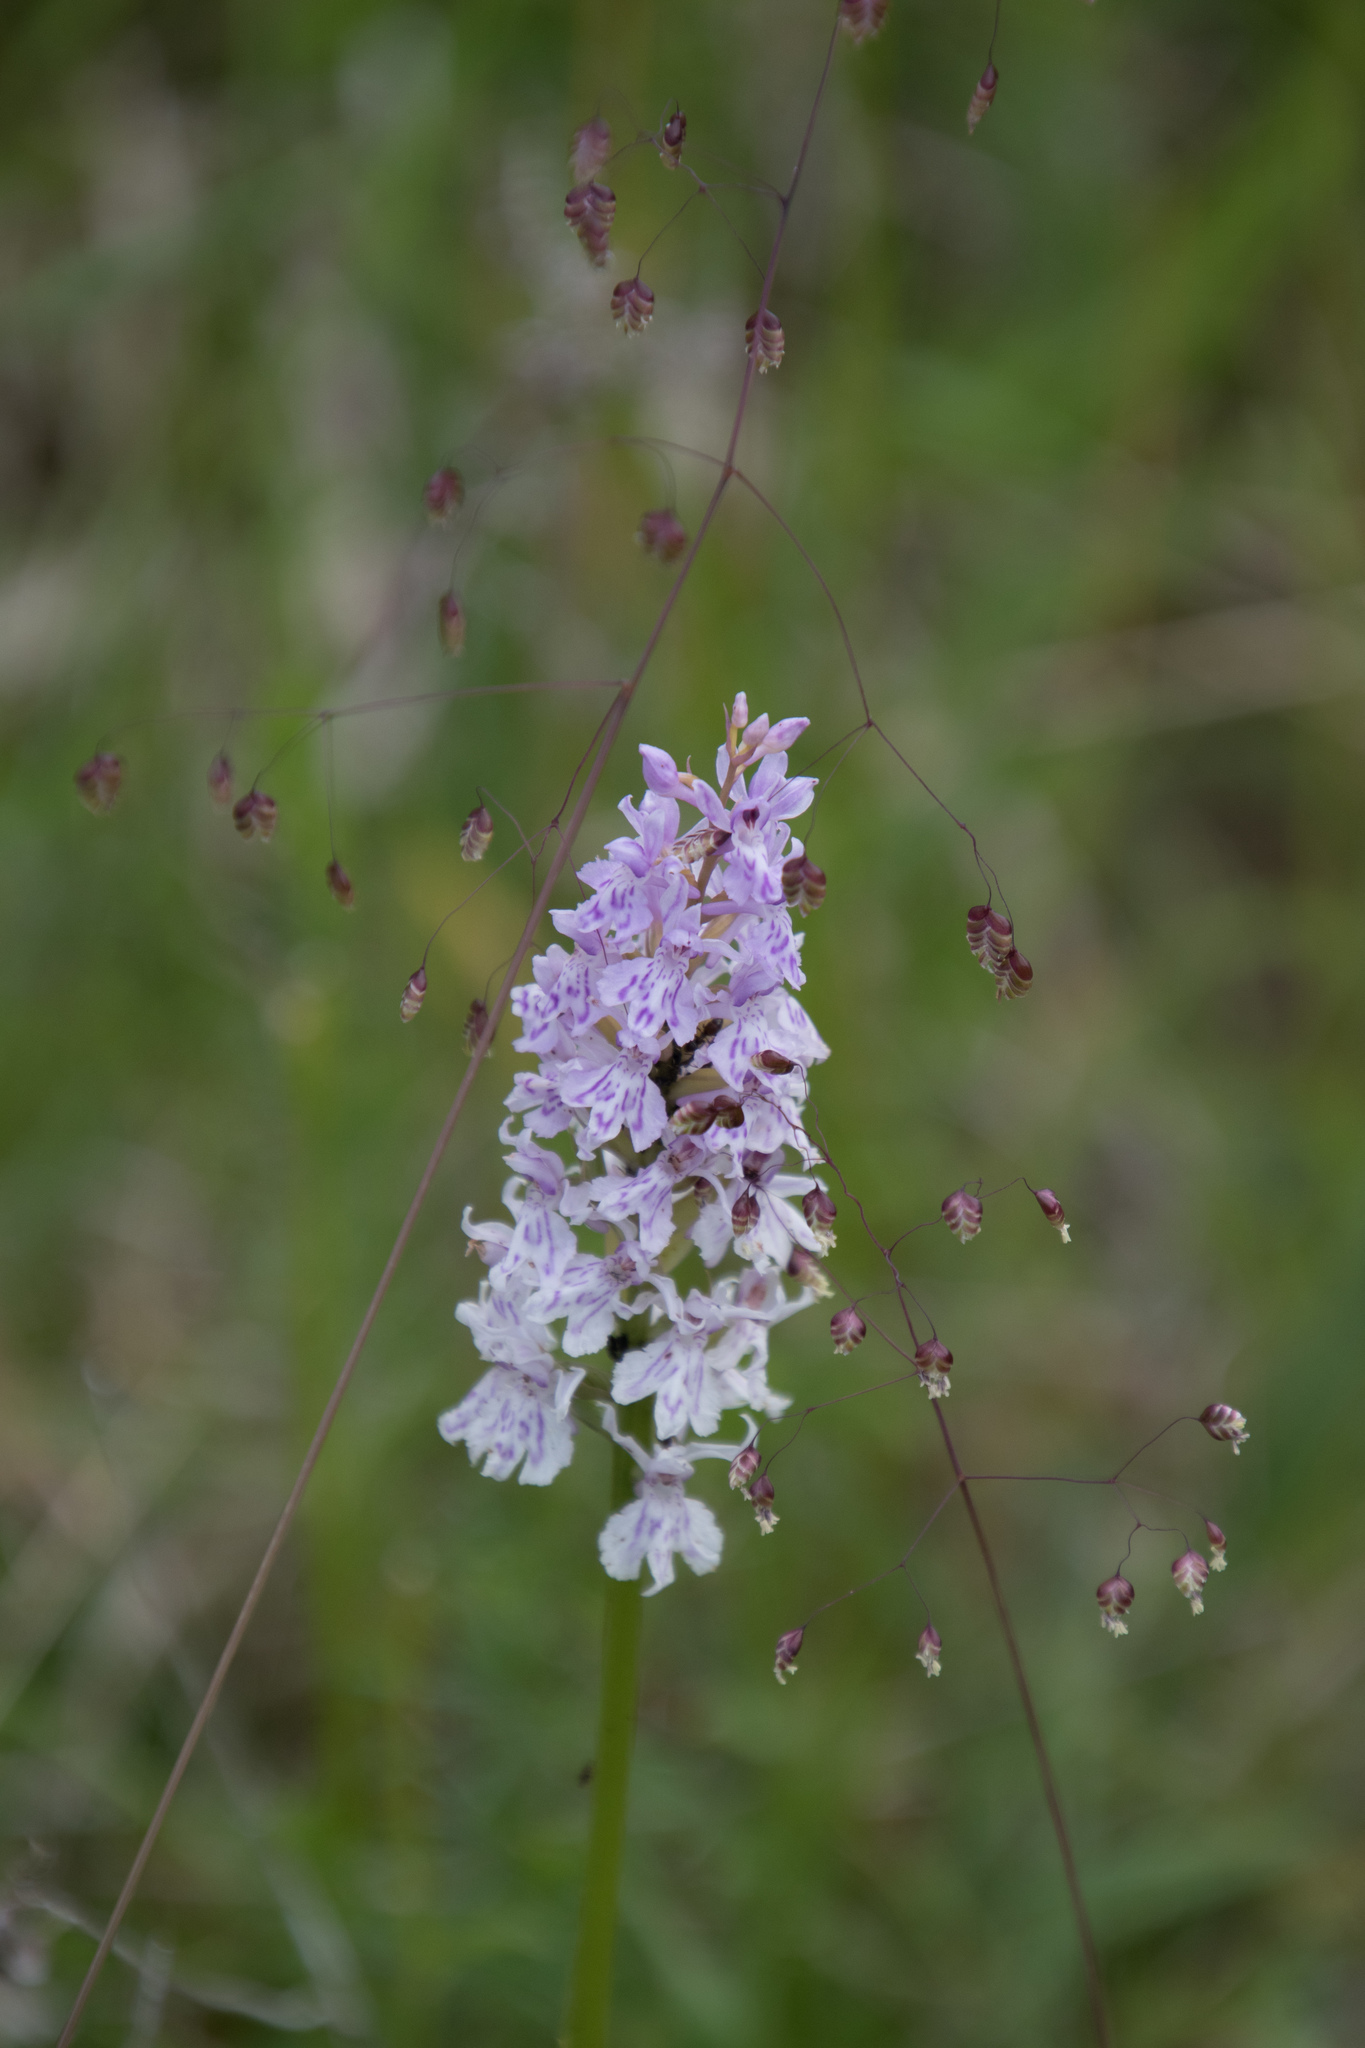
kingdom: Plantae
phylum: Tracheophyta
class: Liliopsida
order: Asparagales
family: Orchidaceae
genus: Dactylorhiza
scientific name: Dactylorhiza maculata
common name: Heath spotted-orchid
